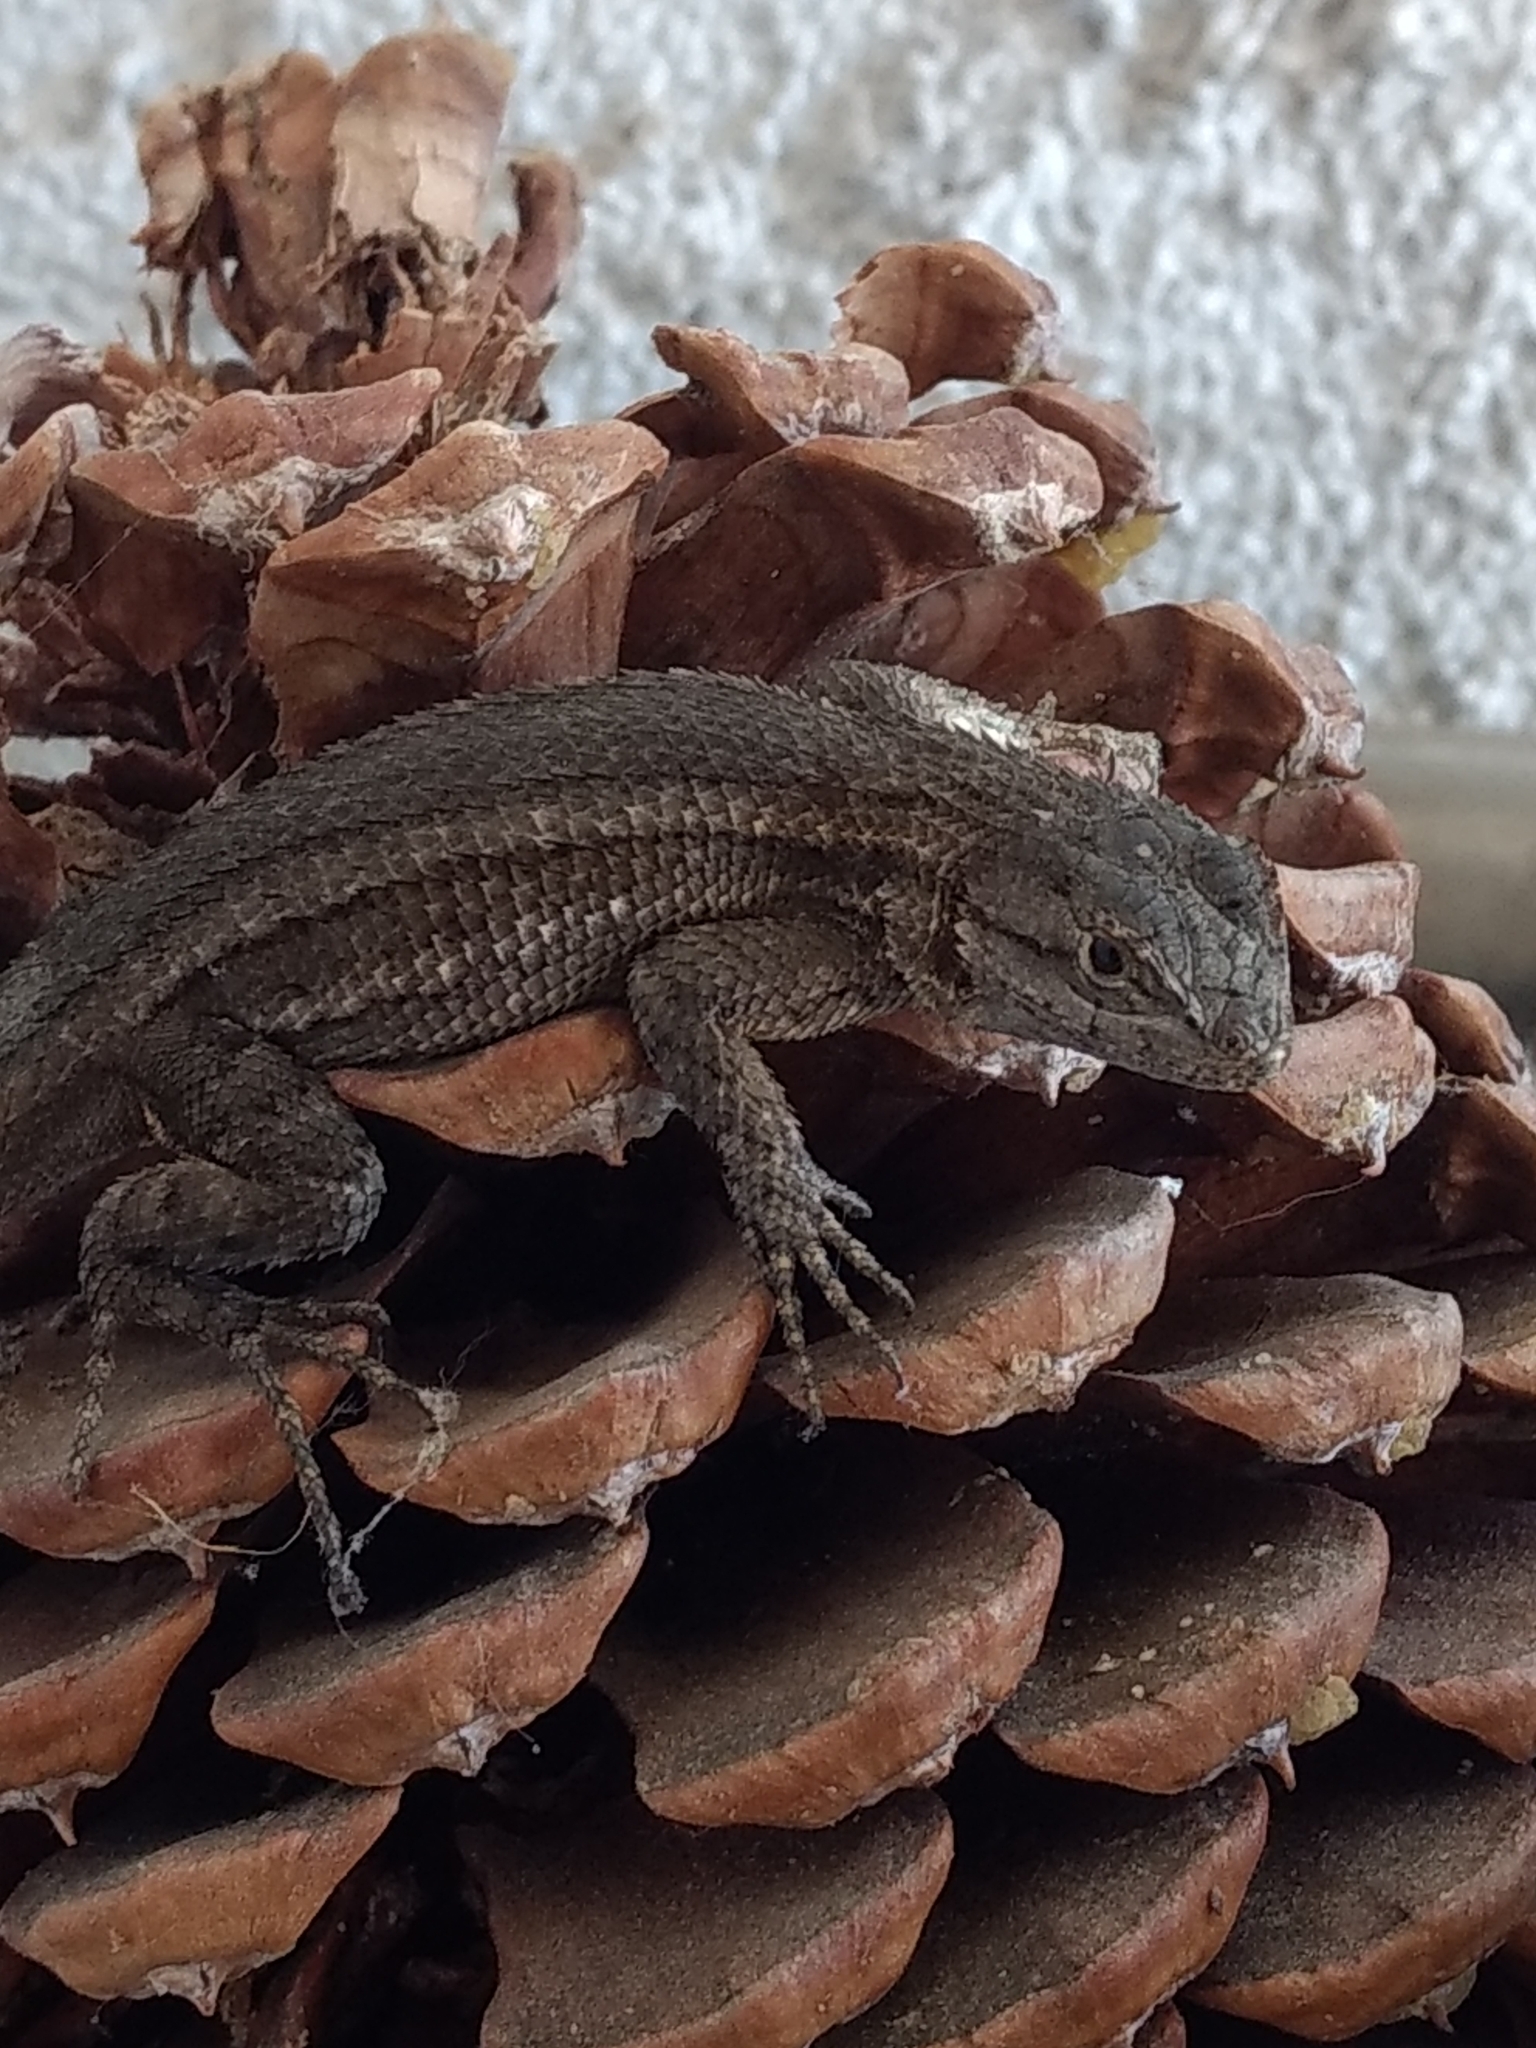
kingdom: Animalia
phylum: Chordata
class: Squamata
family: Phrynosomatidae
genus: Sceloporus
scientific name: Sceloporus occidentalis
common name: Western fence lizard
